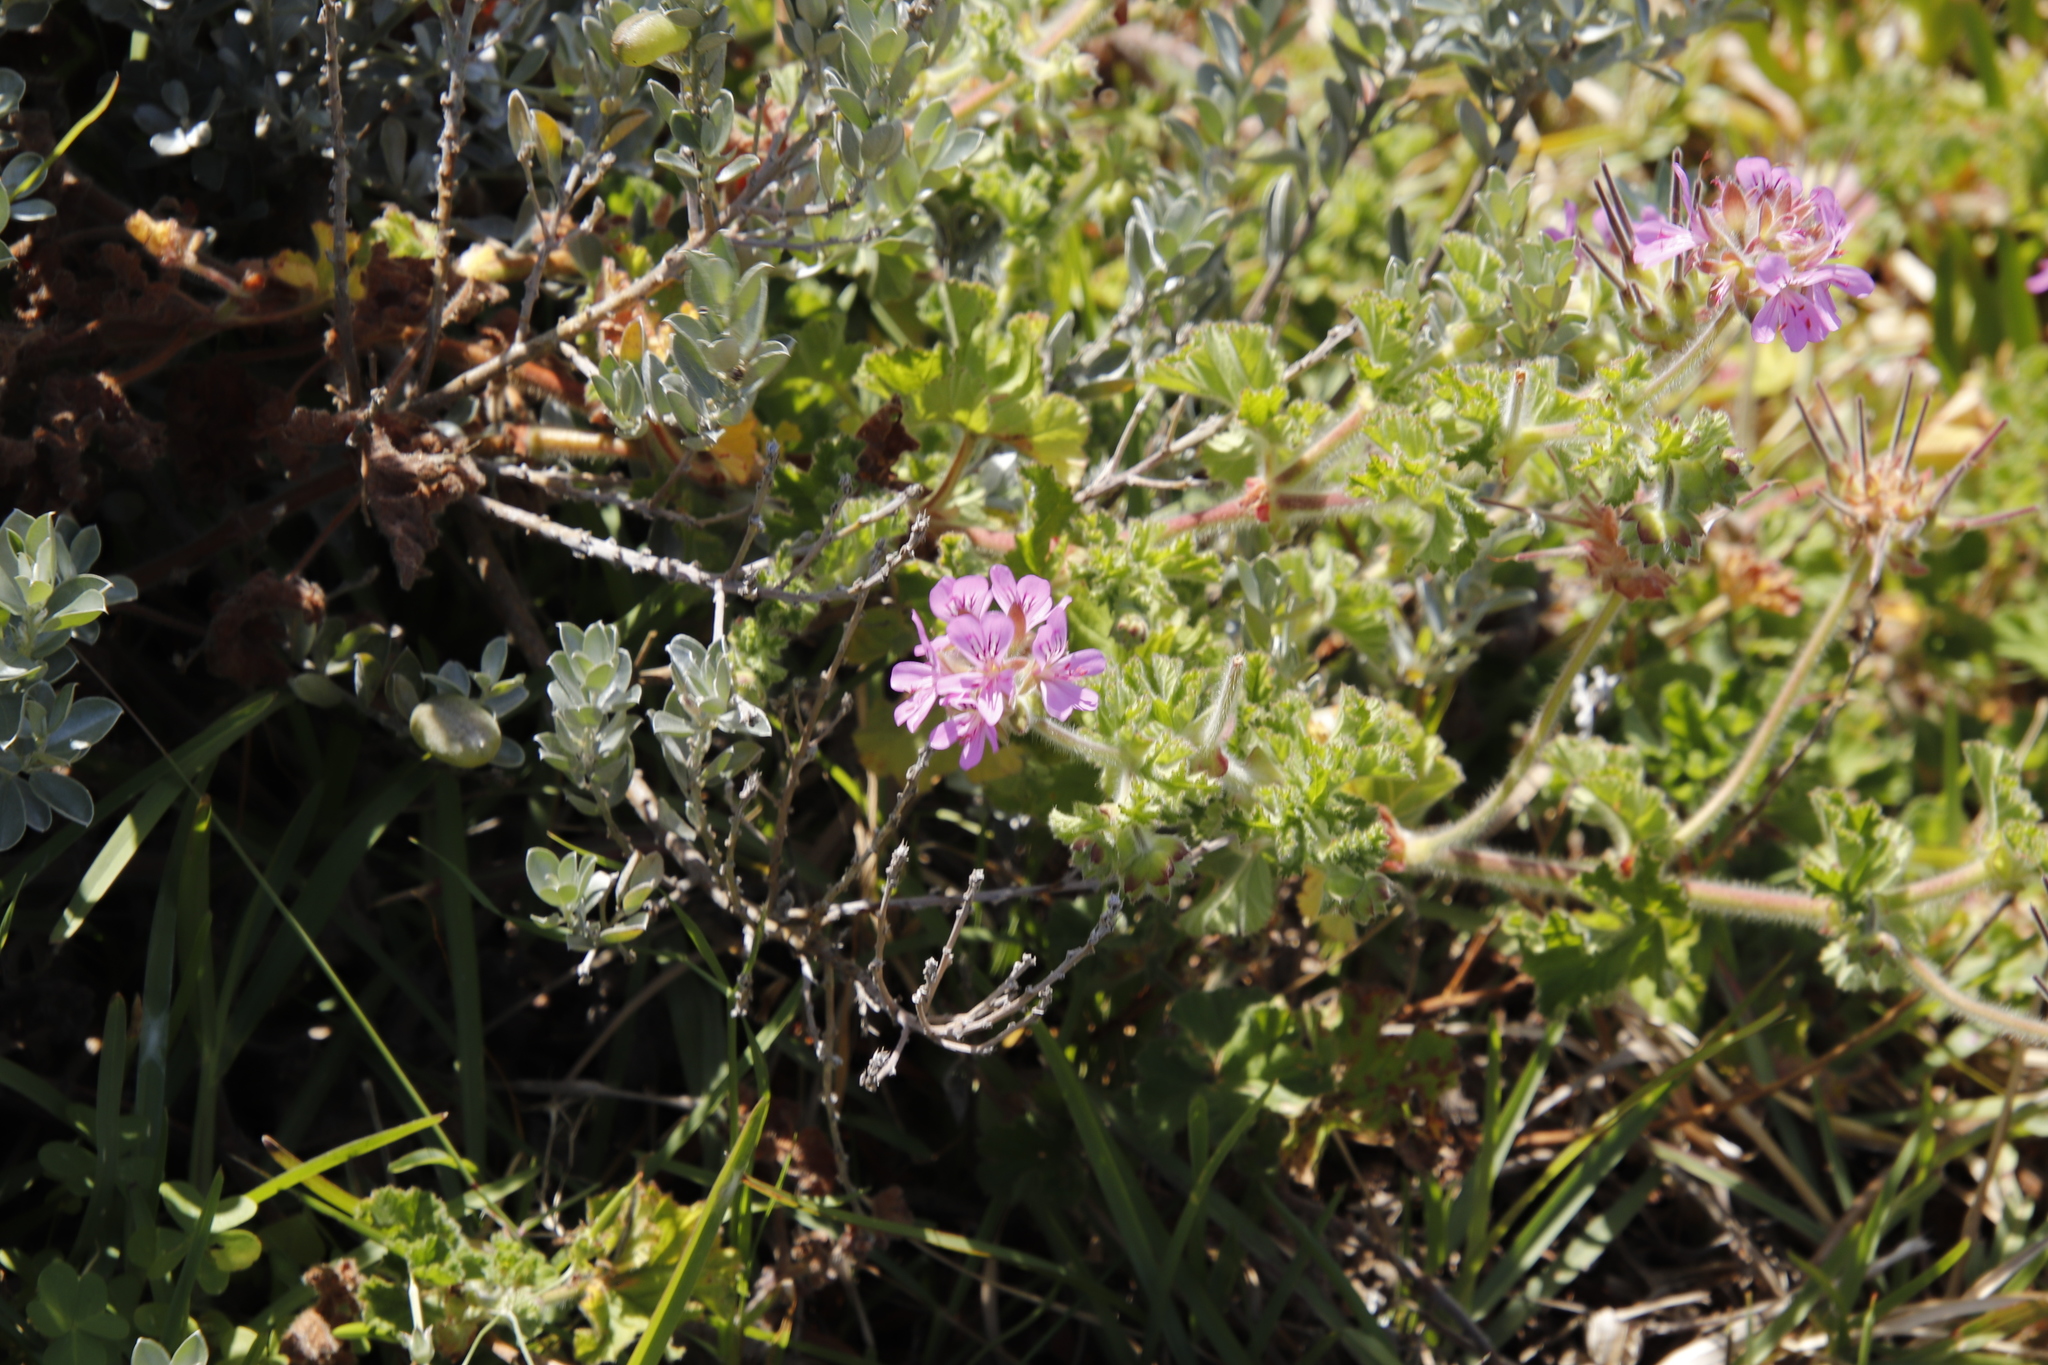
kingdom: Plantae
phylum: Tracheophyta
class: Magnoliopsida
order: Geraniales
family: Geraniaceae
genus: Pelargonium
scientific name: Pelargonium capitatum
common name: Rose scented geranium
